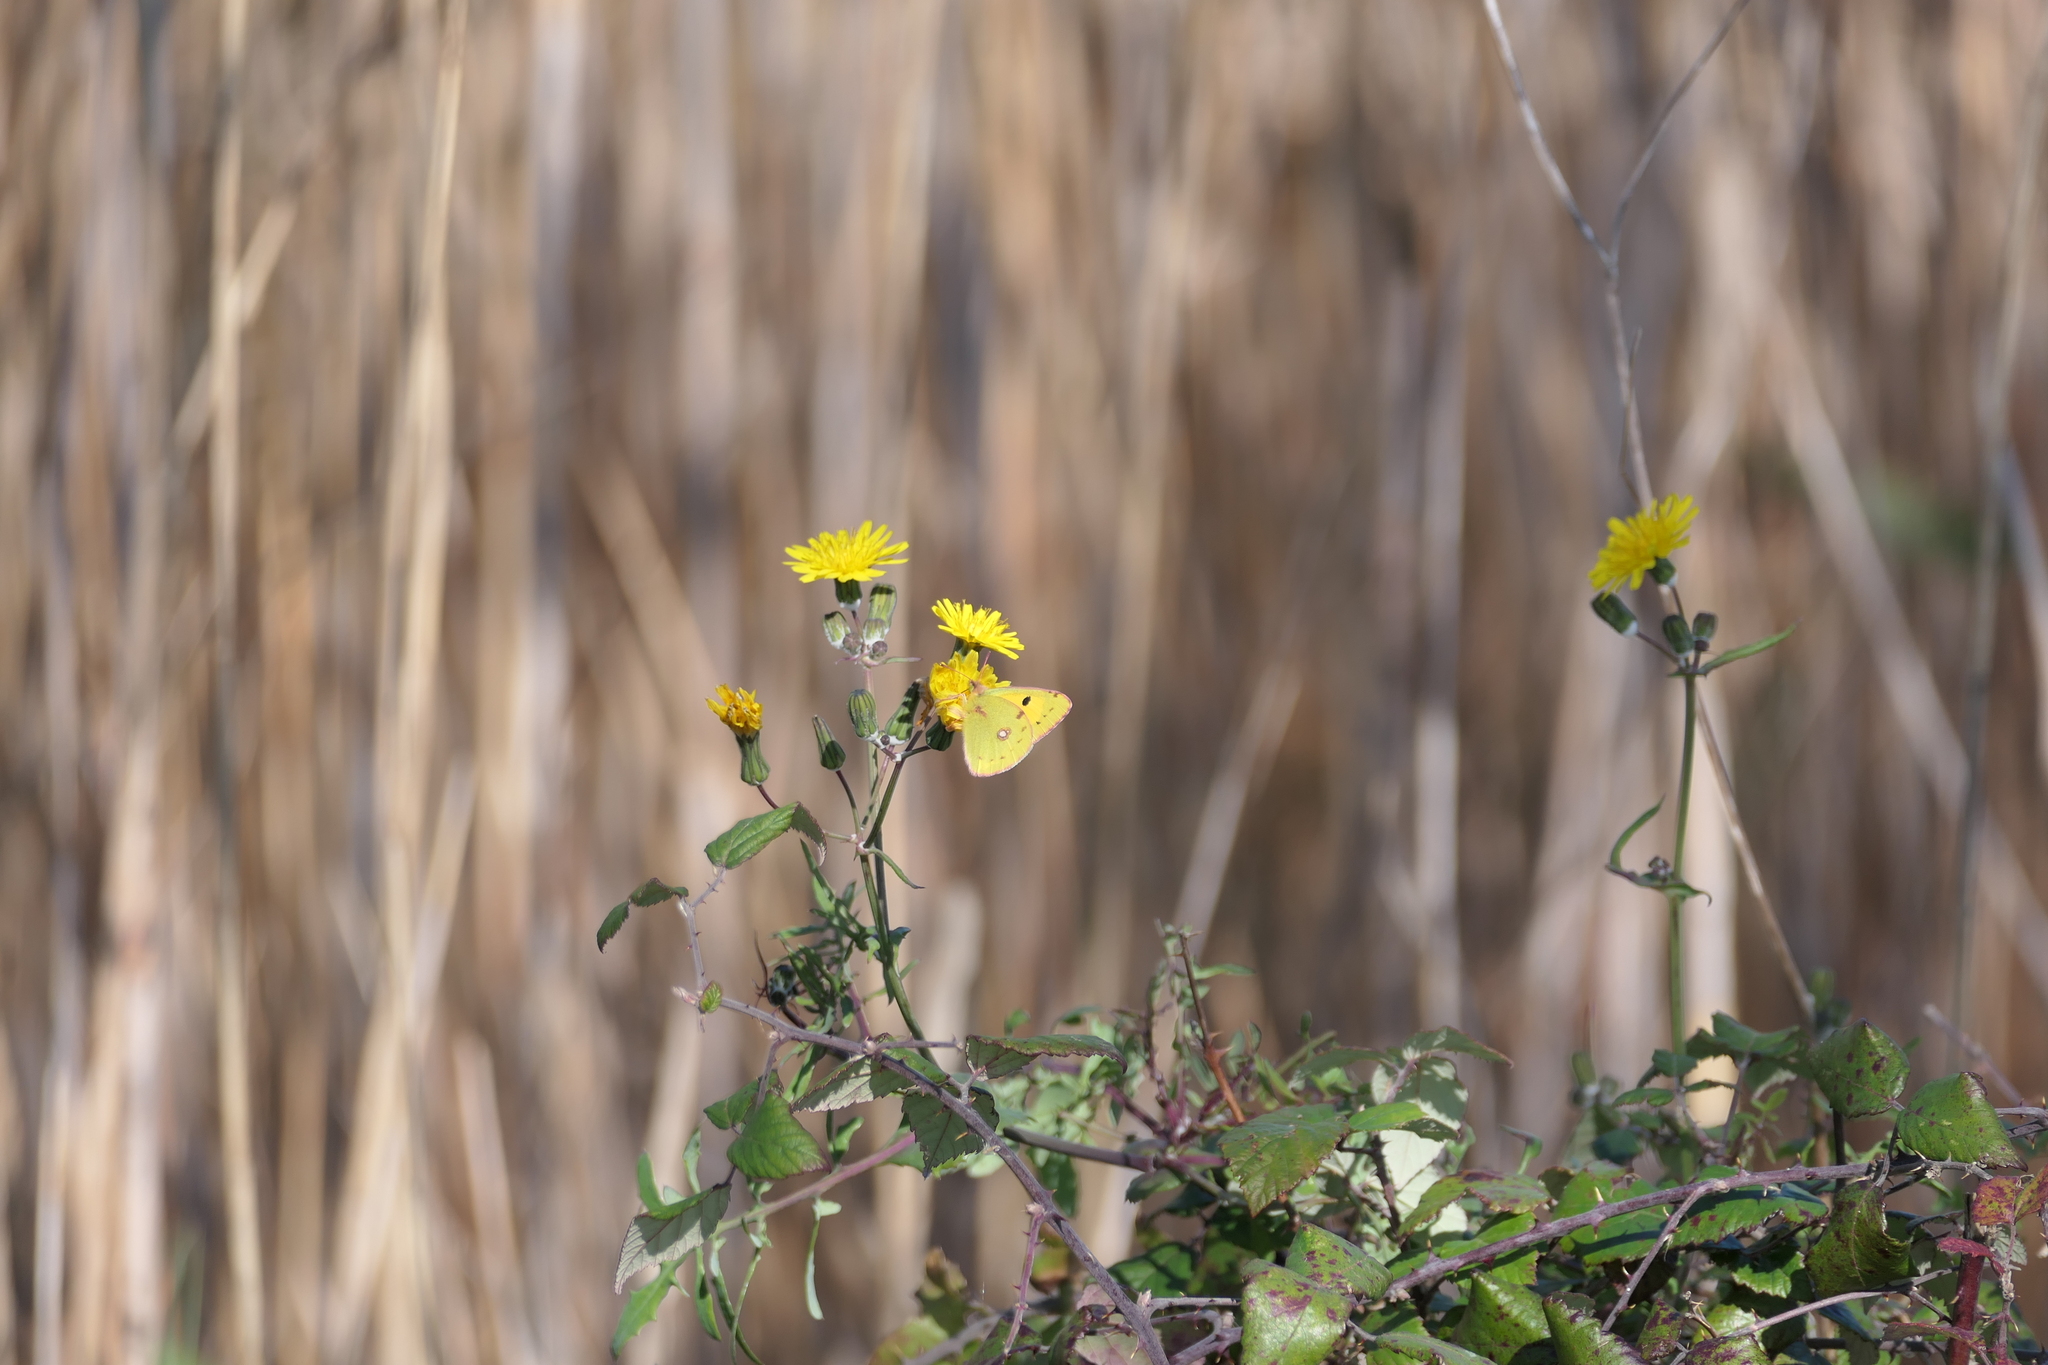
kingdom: Animalia
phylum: Arthropoda
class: Insecta
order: Lepidoptera
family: Pieridae
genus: Colias
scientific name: Colias croceus
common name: Clouded yellow
